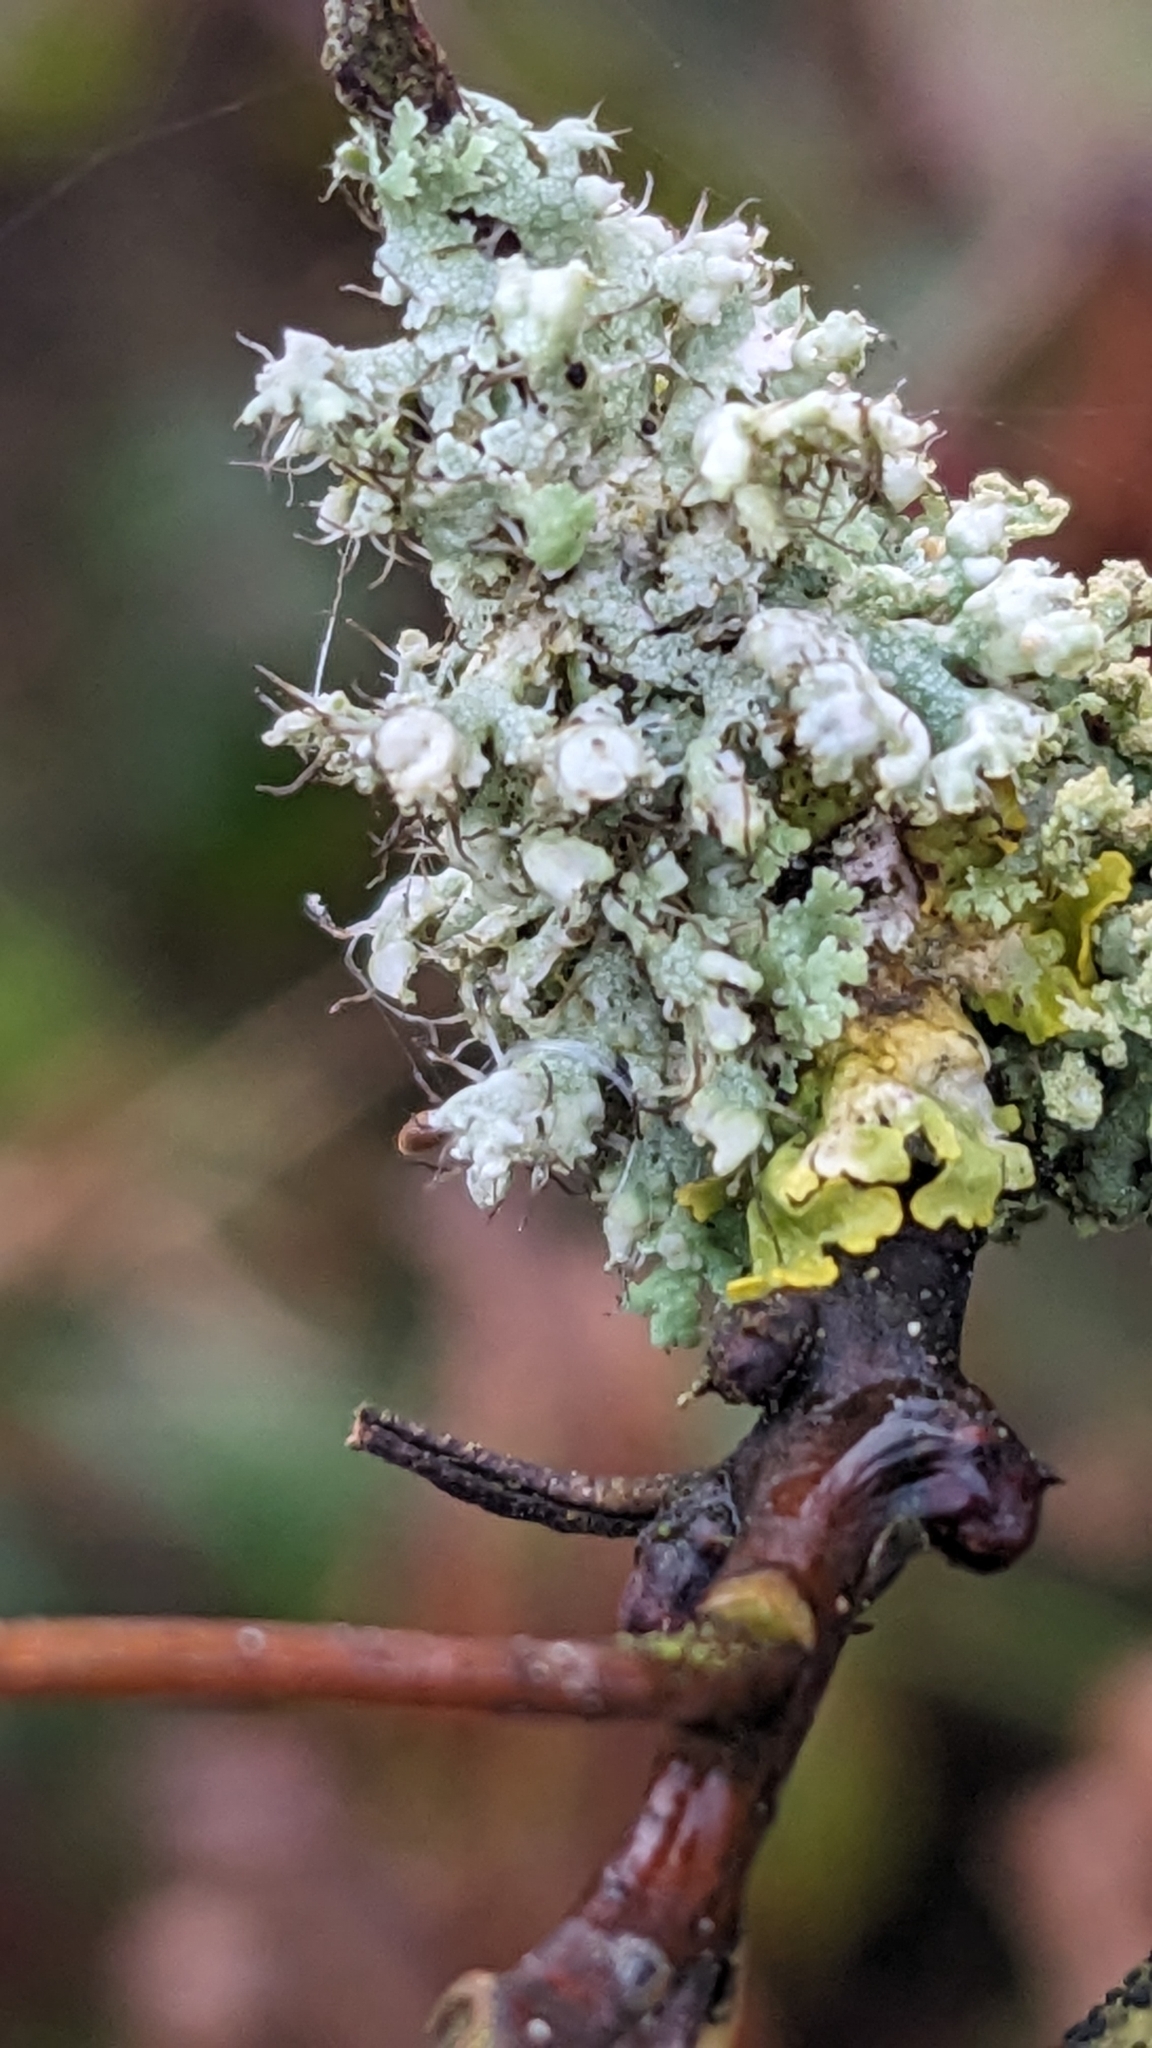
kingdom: Fungi
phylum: Ascomycota
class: Lecanoromycetes
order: Caliciales
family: Physciaceae
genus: Physcia
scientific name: Physcia adscendens
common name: Hooded rosette lichen
